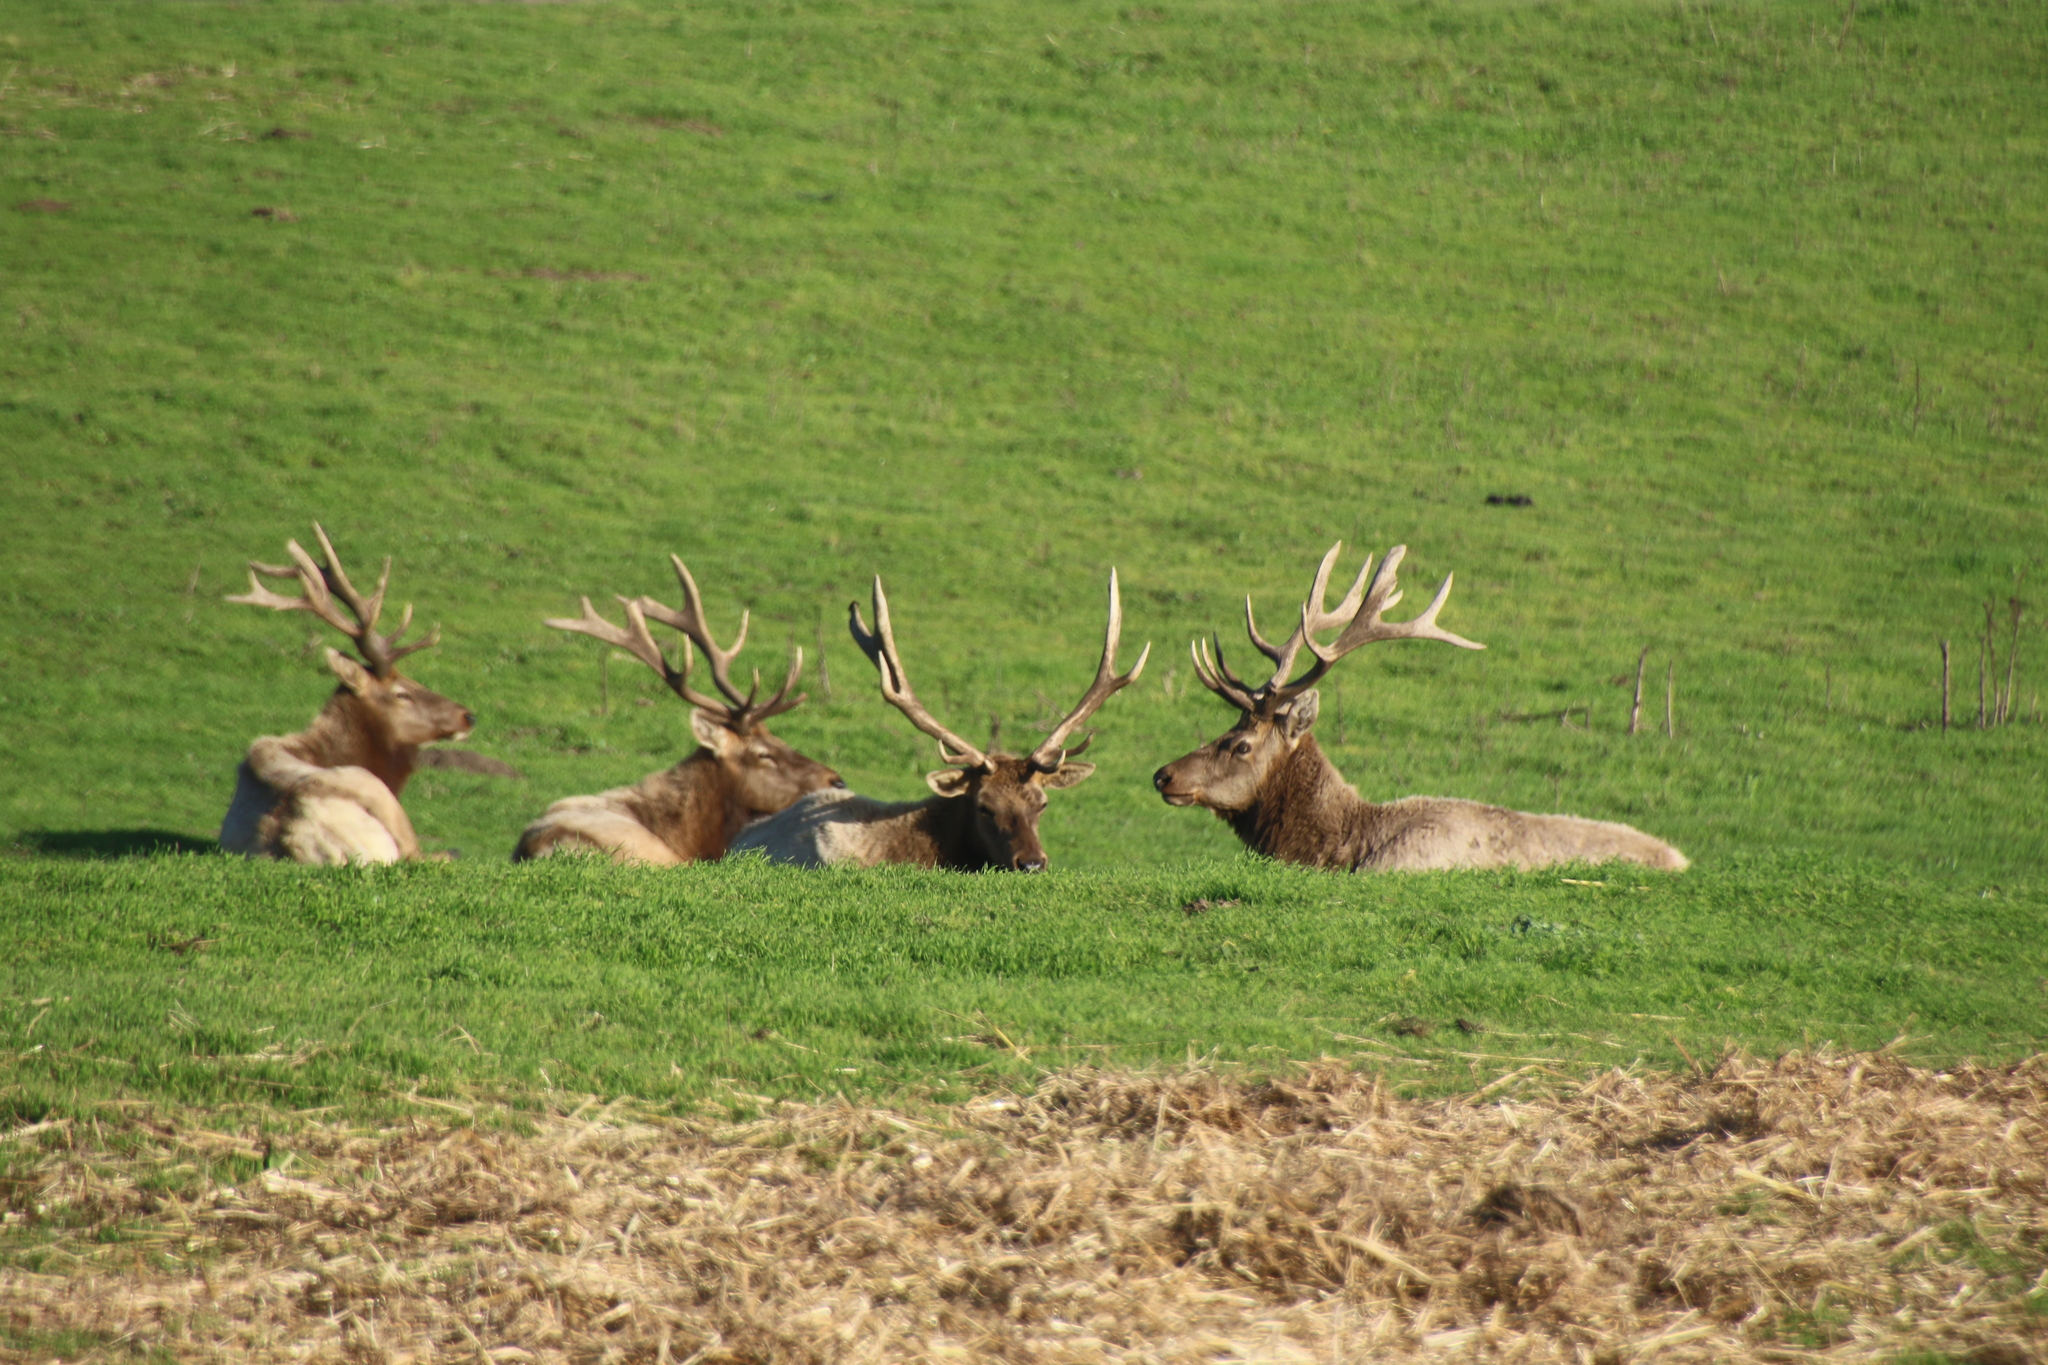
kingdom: Animalia
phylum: Chordata
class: Mammalia
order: Artiodactyla
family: Cervidae
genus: Cervus
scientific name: Cervus elaphus
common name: Red deer
